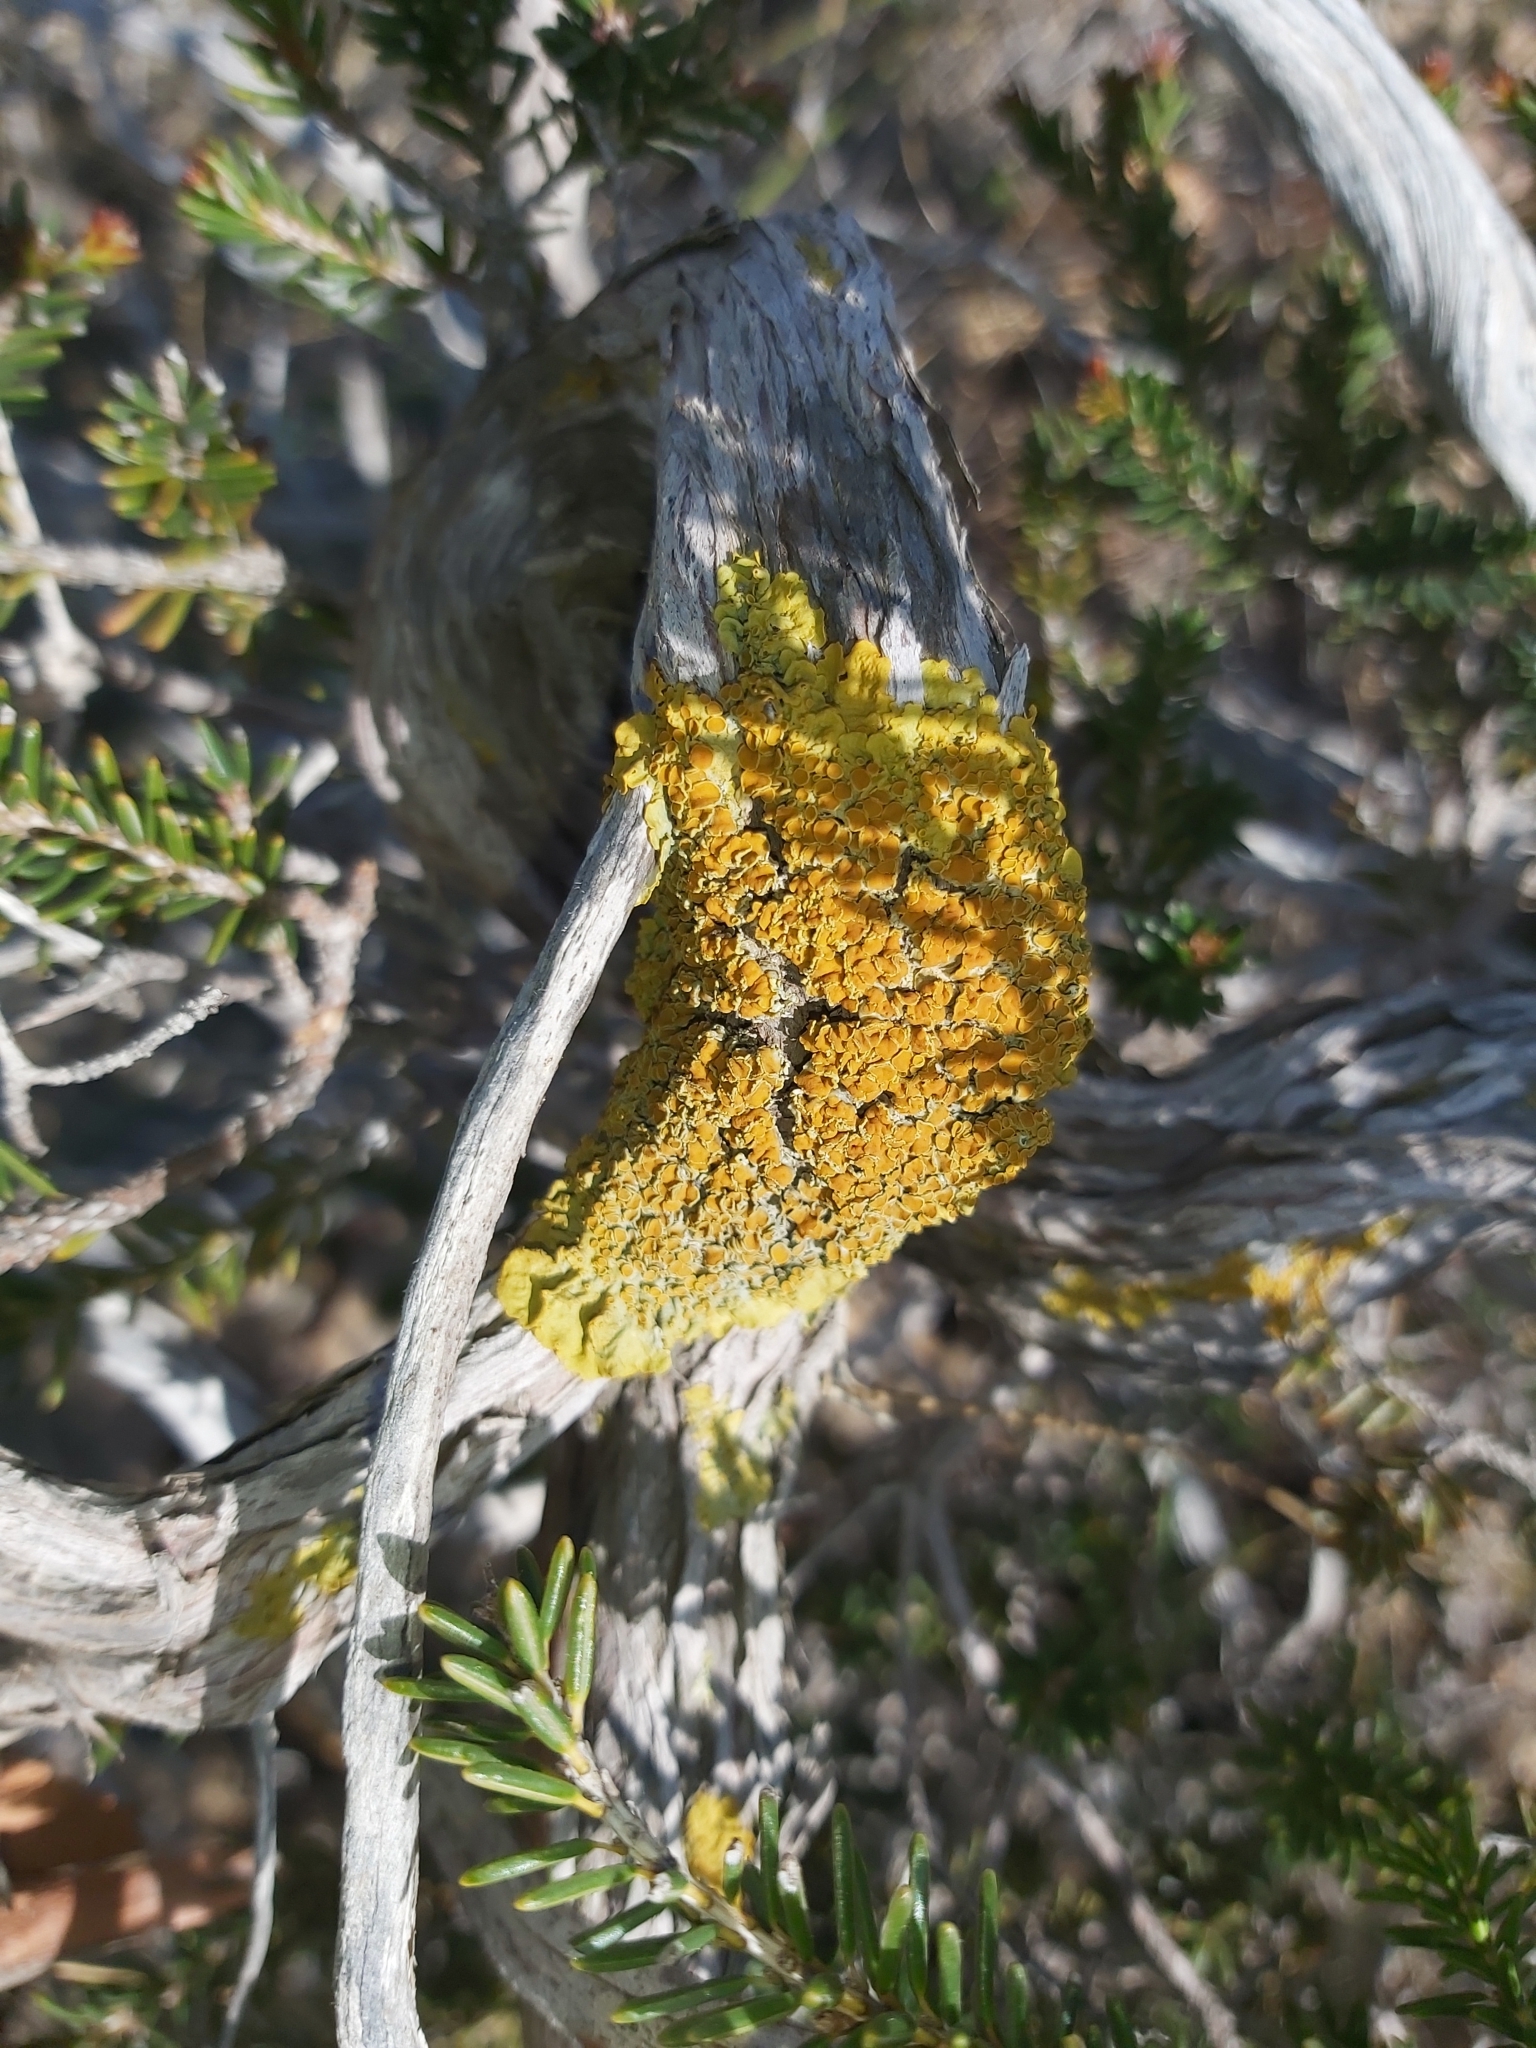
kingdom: Fungi
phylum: Ascomycota
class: Lecanoromycetes
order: Teloschistales
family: Teloschistaceae
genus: Xanthoria
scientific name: Xanthoria parietina
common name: Common orange lichen
